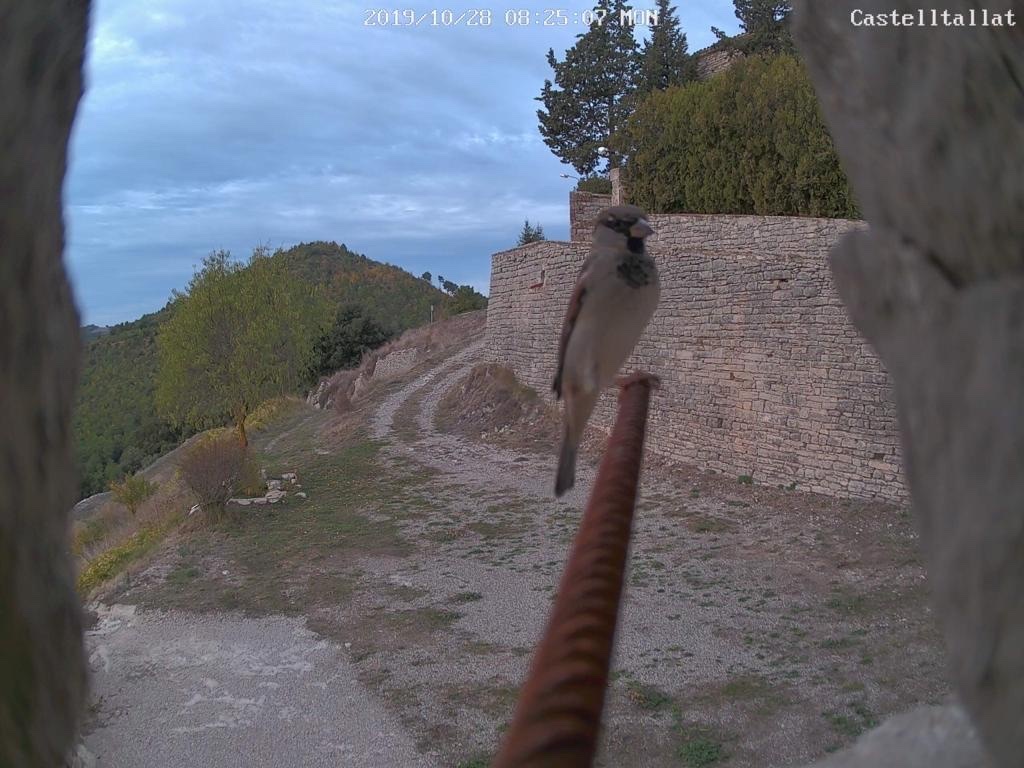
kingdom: Animalia
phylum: Chordata
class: Aves
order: Passeriformes
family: Passeridae
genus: Passer
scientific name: Passer domesticus
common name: House sparrow
